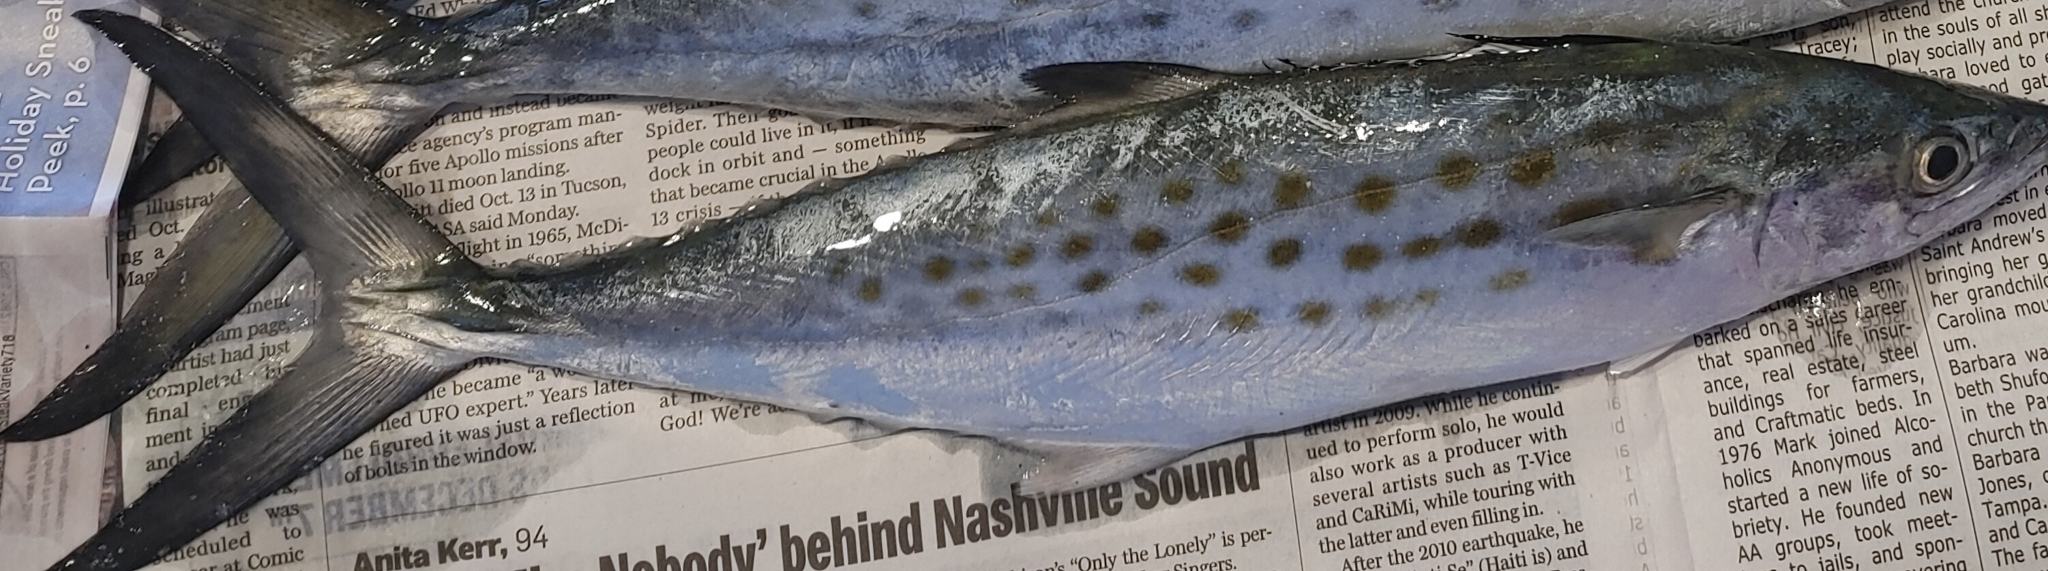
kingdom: Animalia
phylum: Chordata
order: Perciformes
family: Scombridae
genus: Scomberomorus
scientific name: Scomberomorus maculatus
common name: Spanish mackerel
